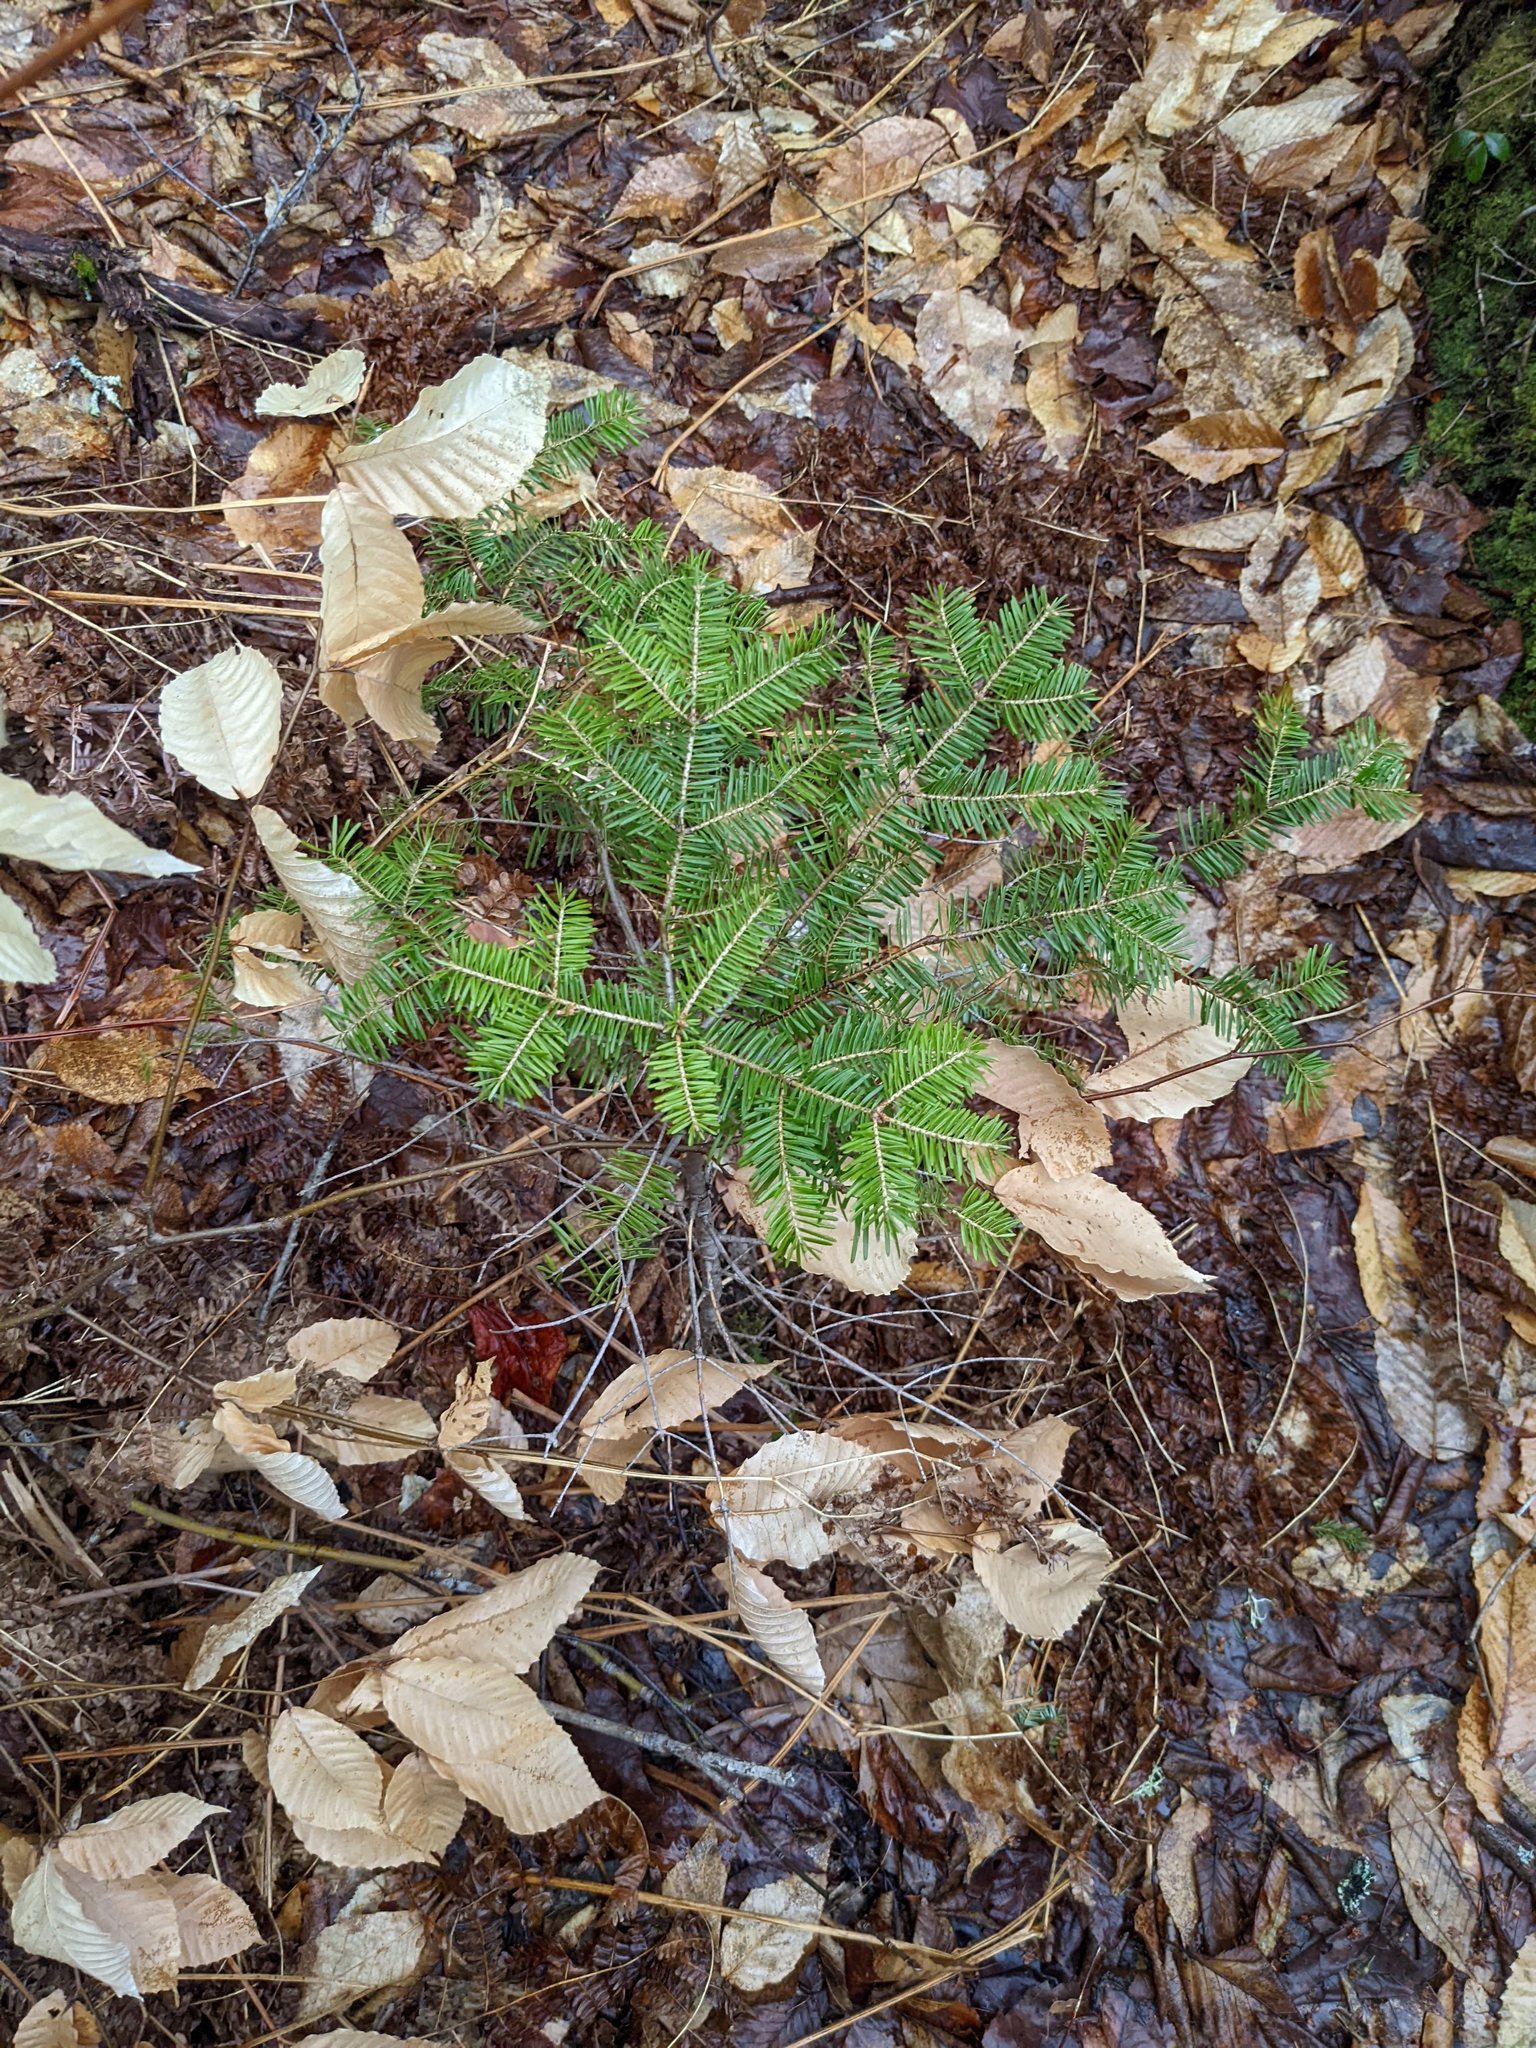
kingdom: Plantae
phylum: Tracheophyta
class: Pinopsida
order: Pinales
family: Pinaceae
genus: Abies
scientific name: Abies balsamea
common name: Balsam fir
